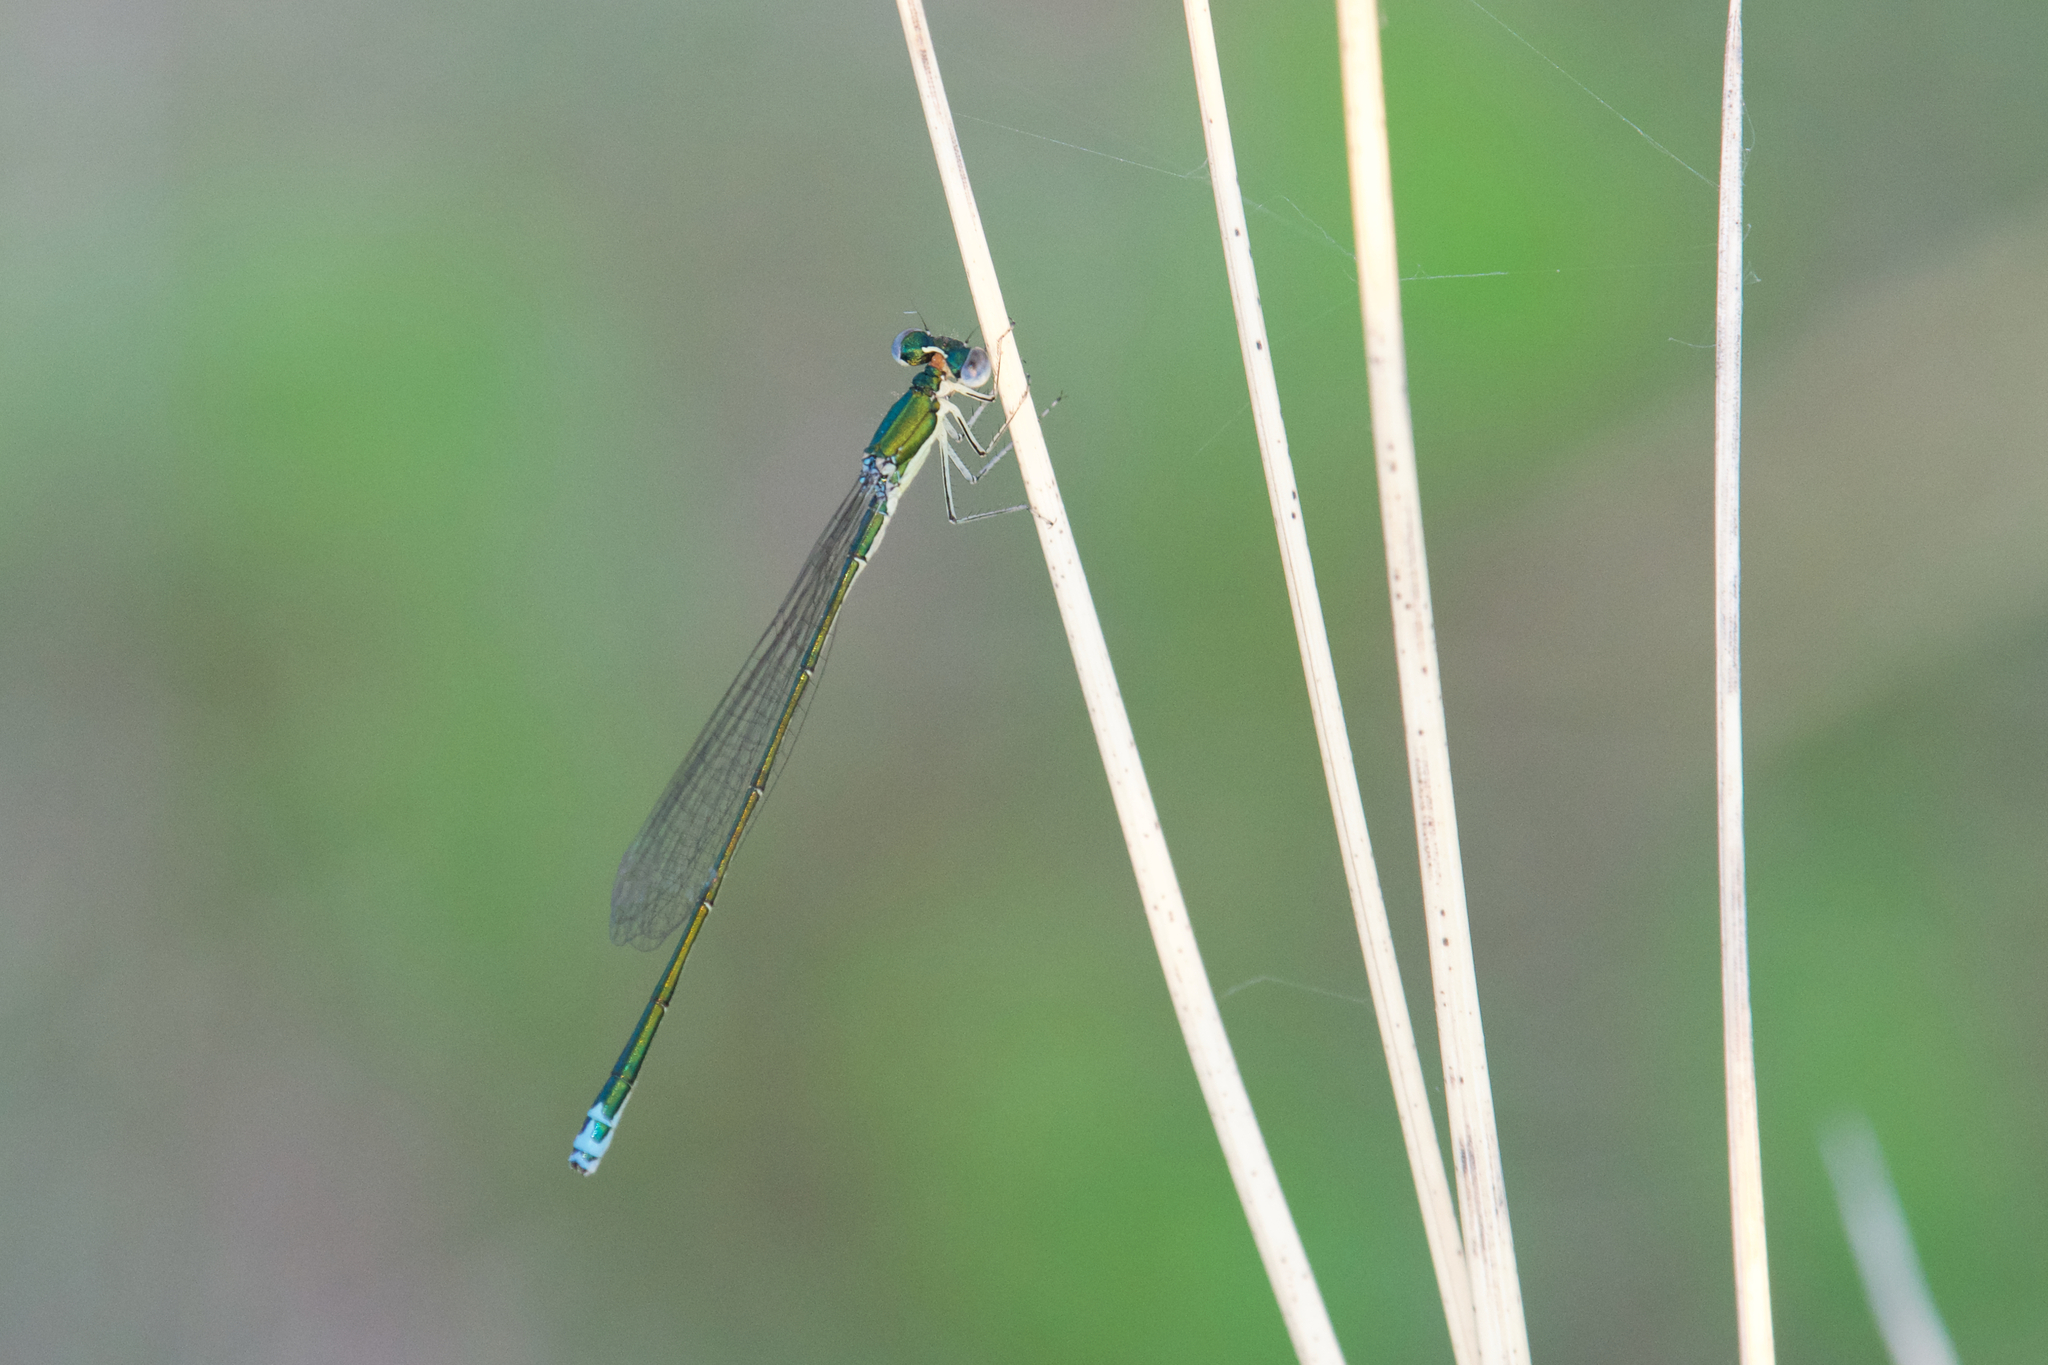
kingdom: Animalia
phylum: Arthropoda
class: Insecta
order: Odonata
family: Coenagrionidae
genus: Nehalennia
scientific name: Nehalennia irene
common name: Sedge sprite
